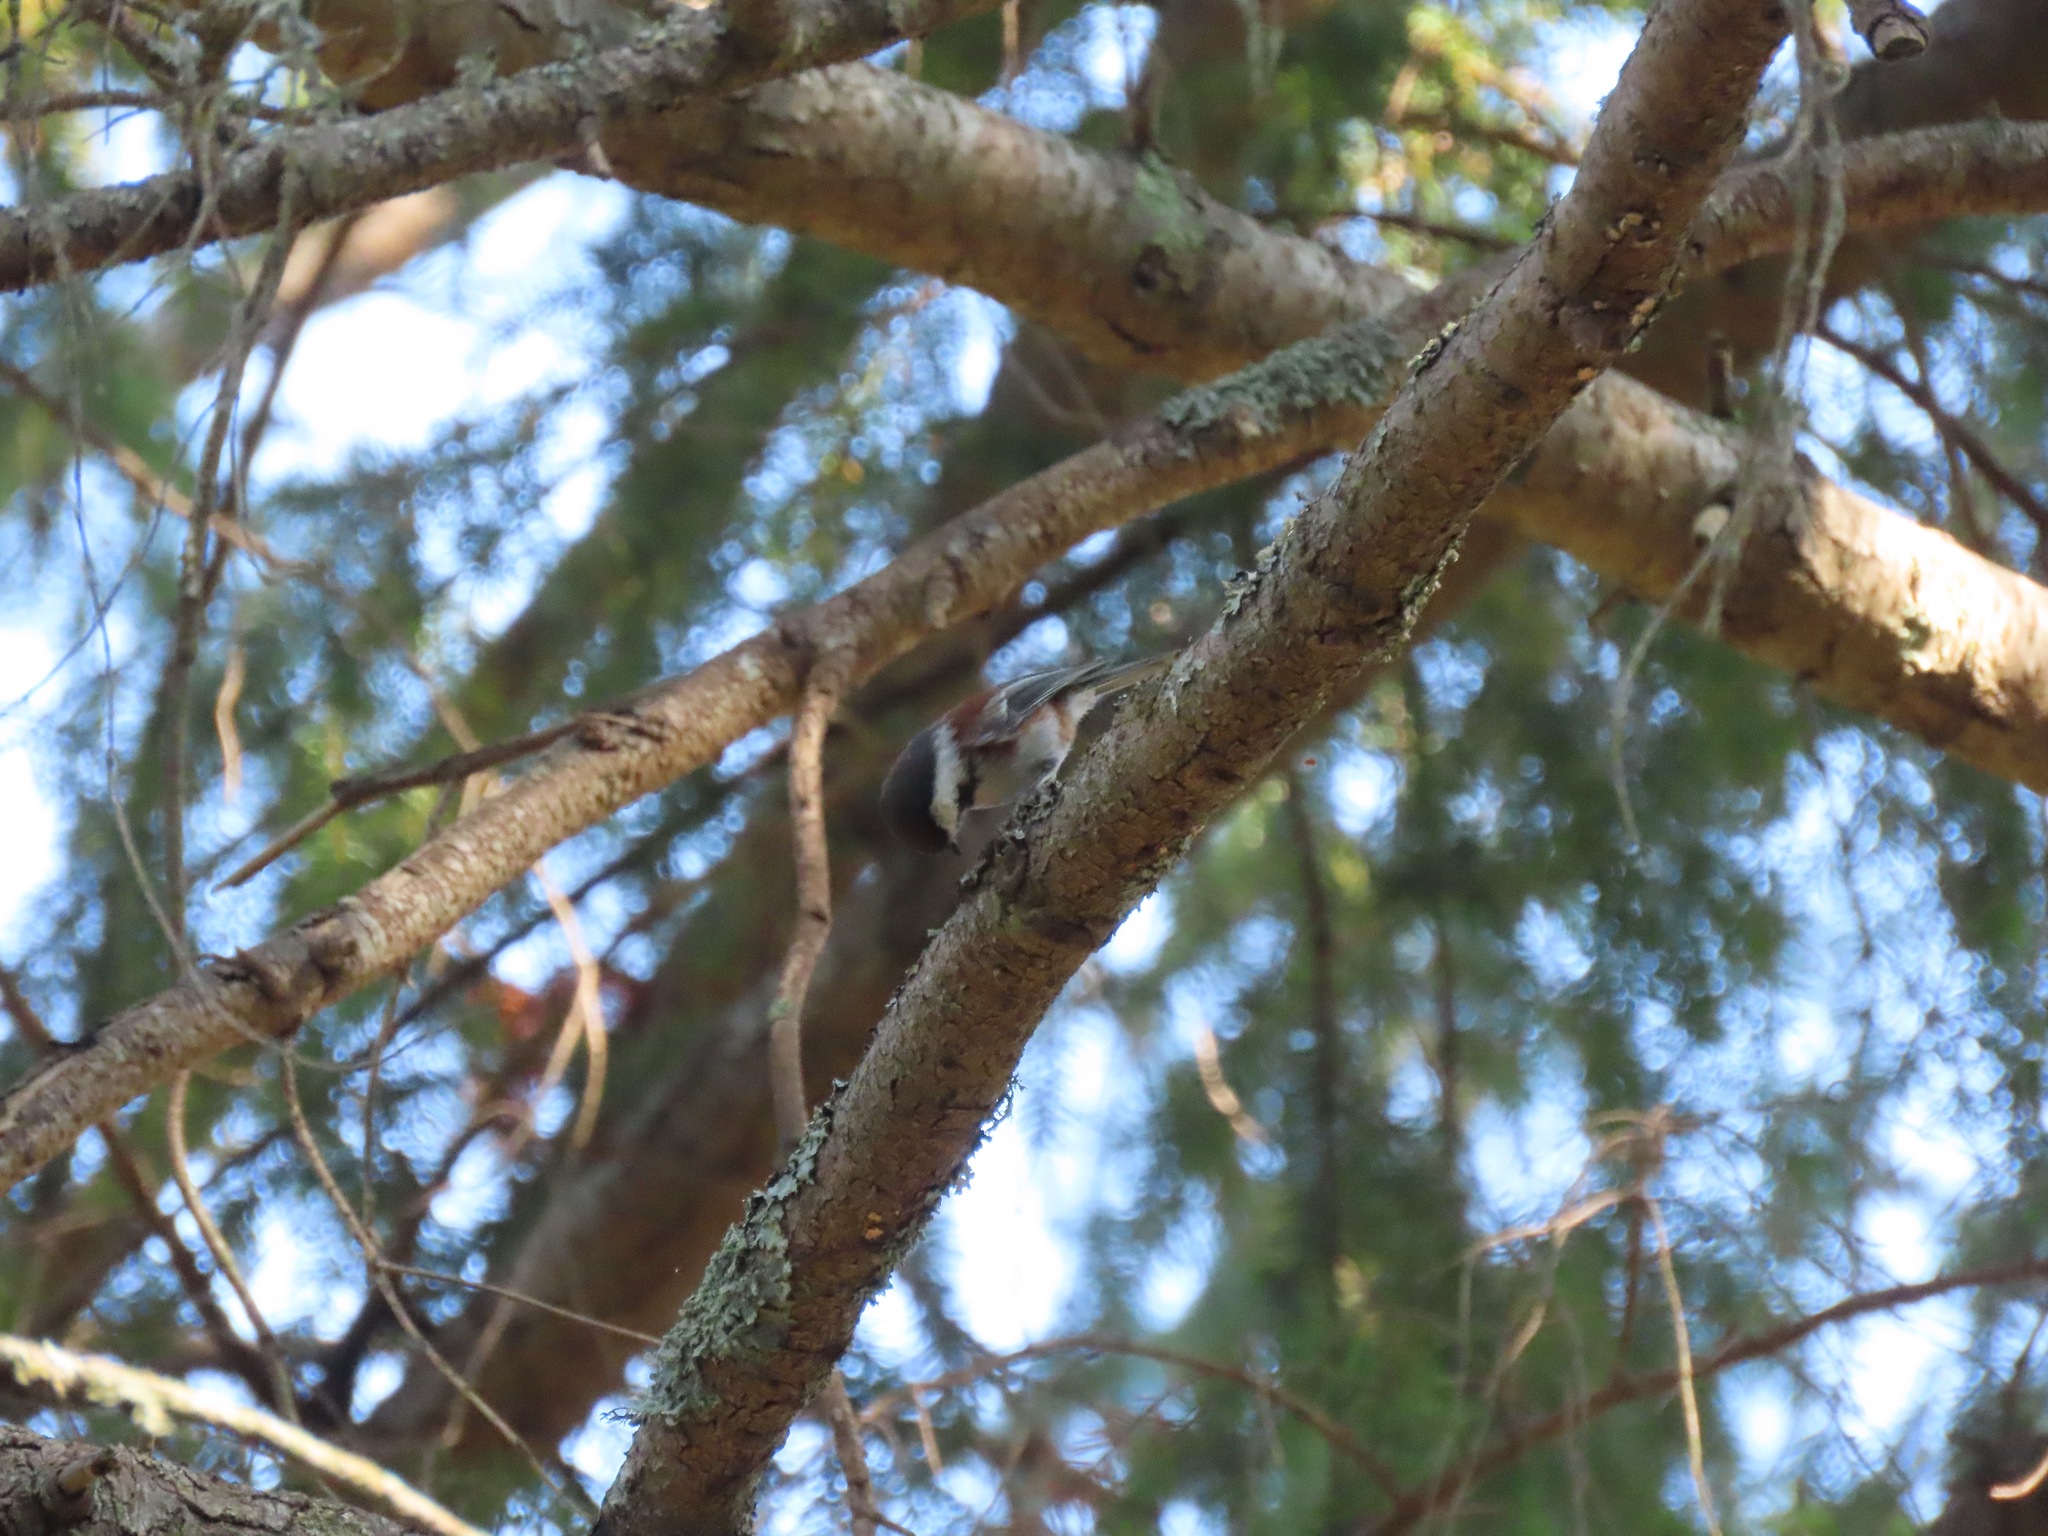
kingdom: Animalia
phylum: Chordata
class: Aves
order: Passeriformes
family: Paridae
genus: Poecile
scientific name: Poecile rufescens
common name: Chestnut-backed chickadee
